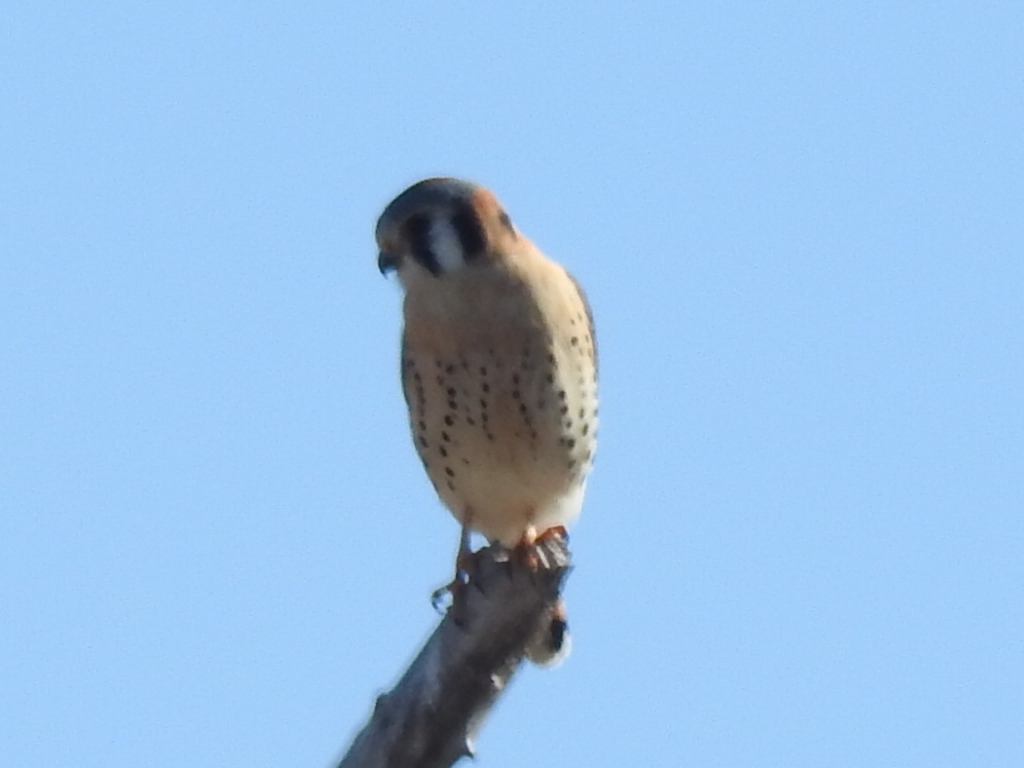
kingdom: Animalia
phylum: Chordata
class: Aves
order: Falconiformes
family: Falconidae
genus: Falco
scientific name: Falco sparverius
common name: American kestrel
